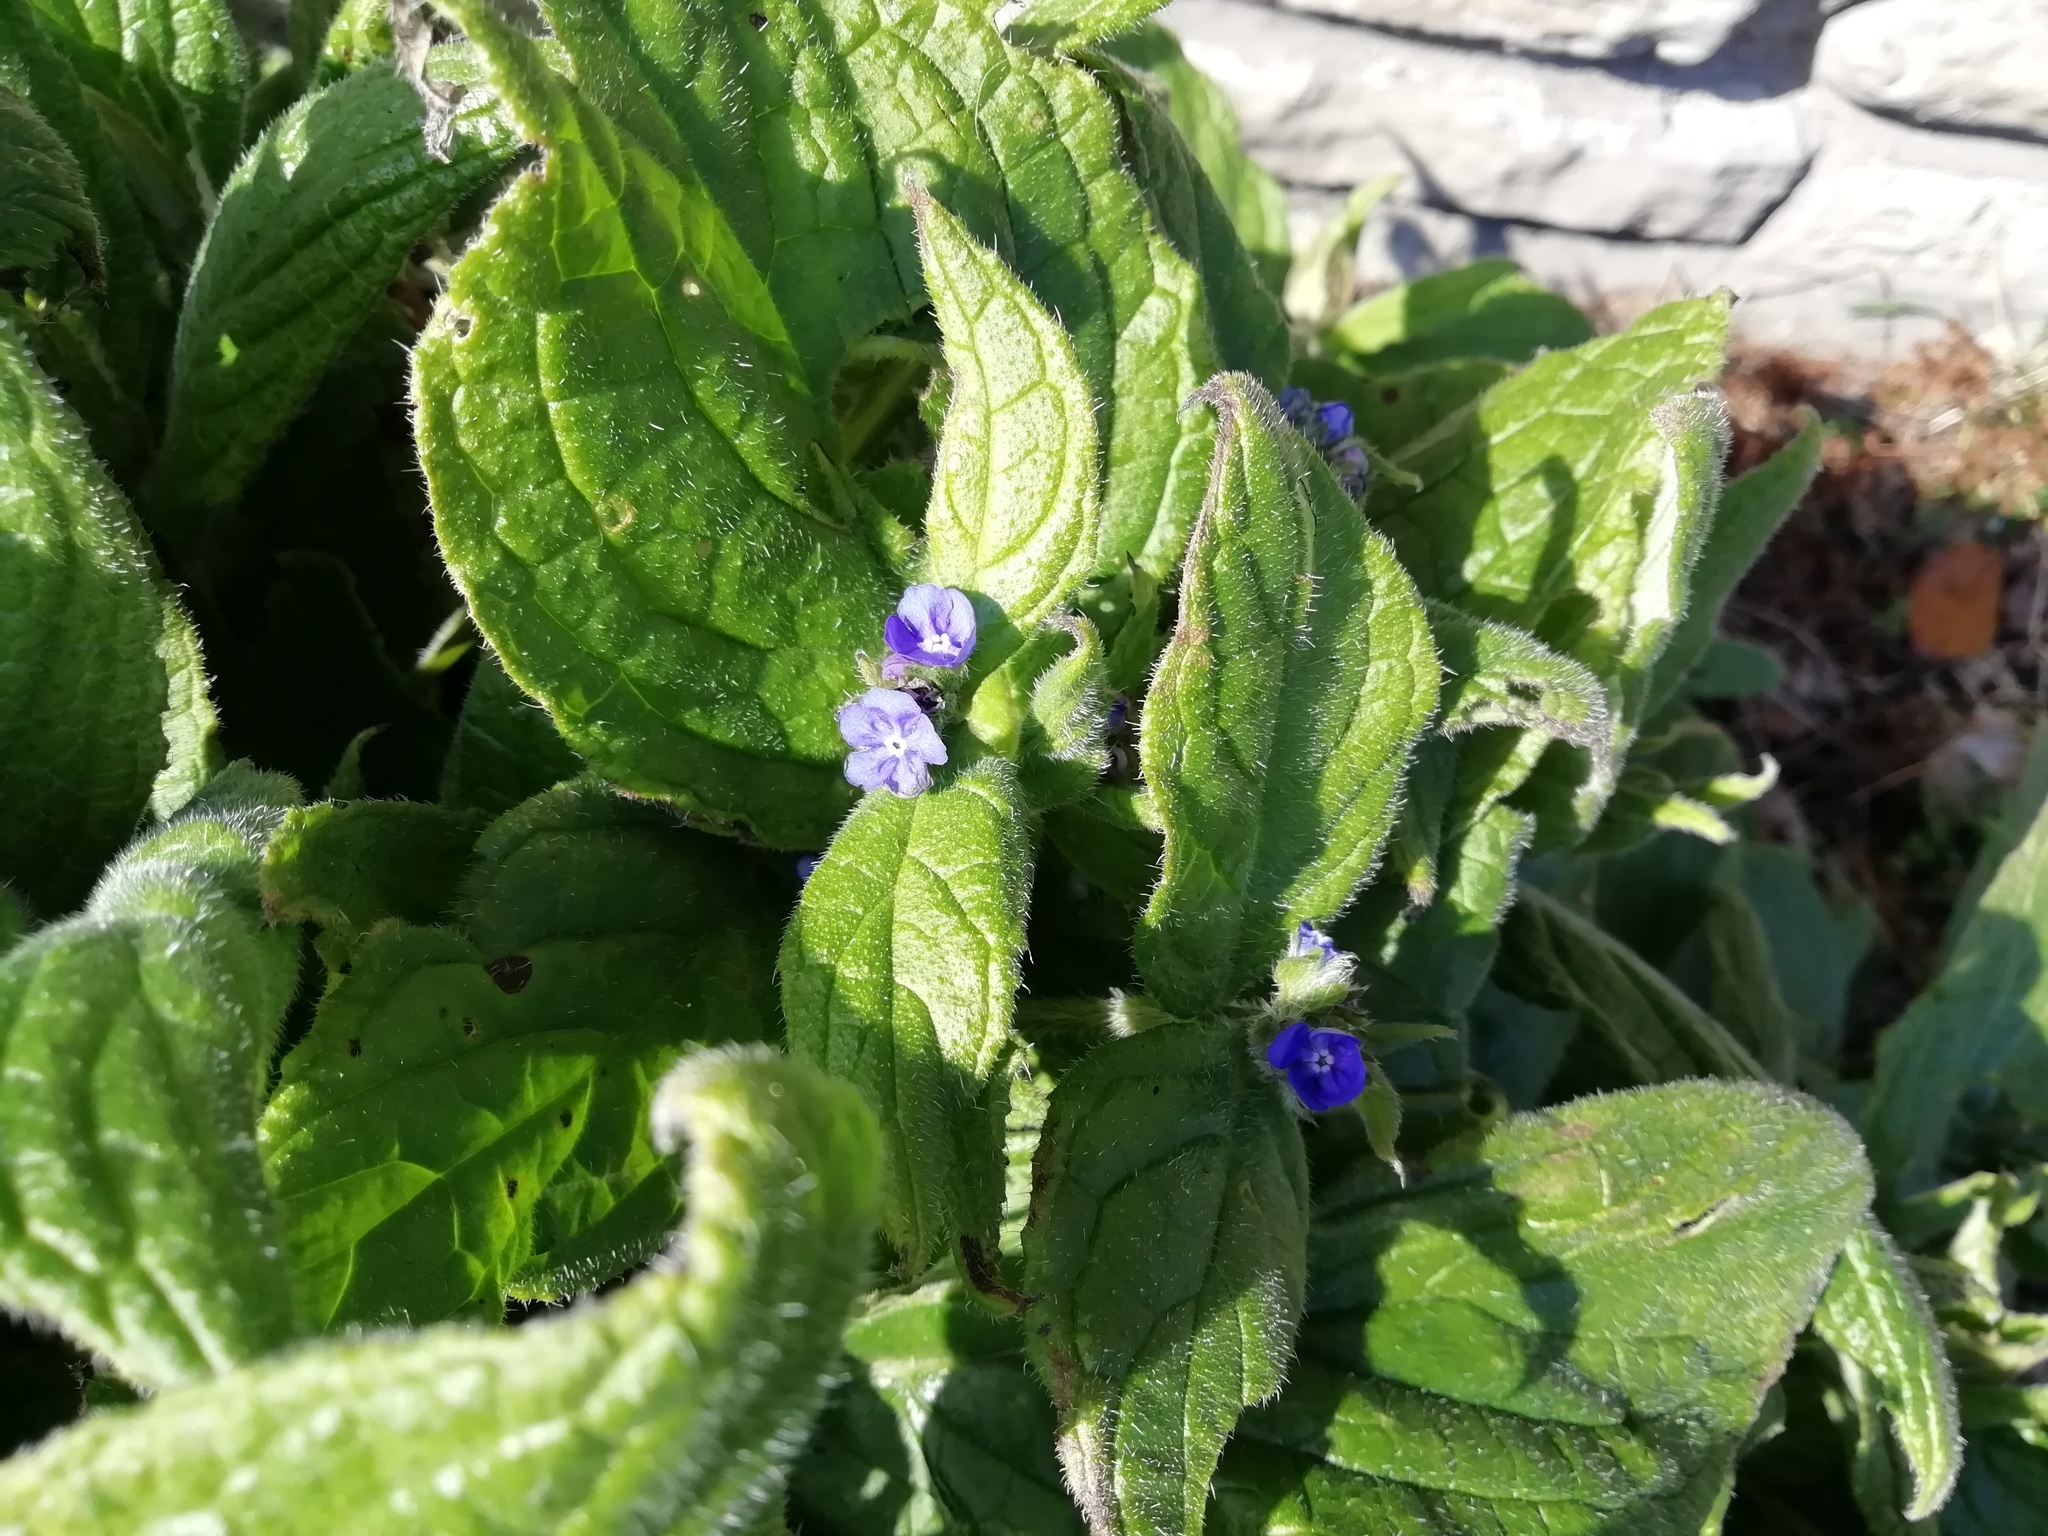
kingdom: Plantae
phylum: Tracheophyta
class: Magnoliopsida
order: Boraginales
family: Boraginaceae
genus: Pentaglottis
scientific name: Pentaglottis sempervirens
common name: Green alkanet
